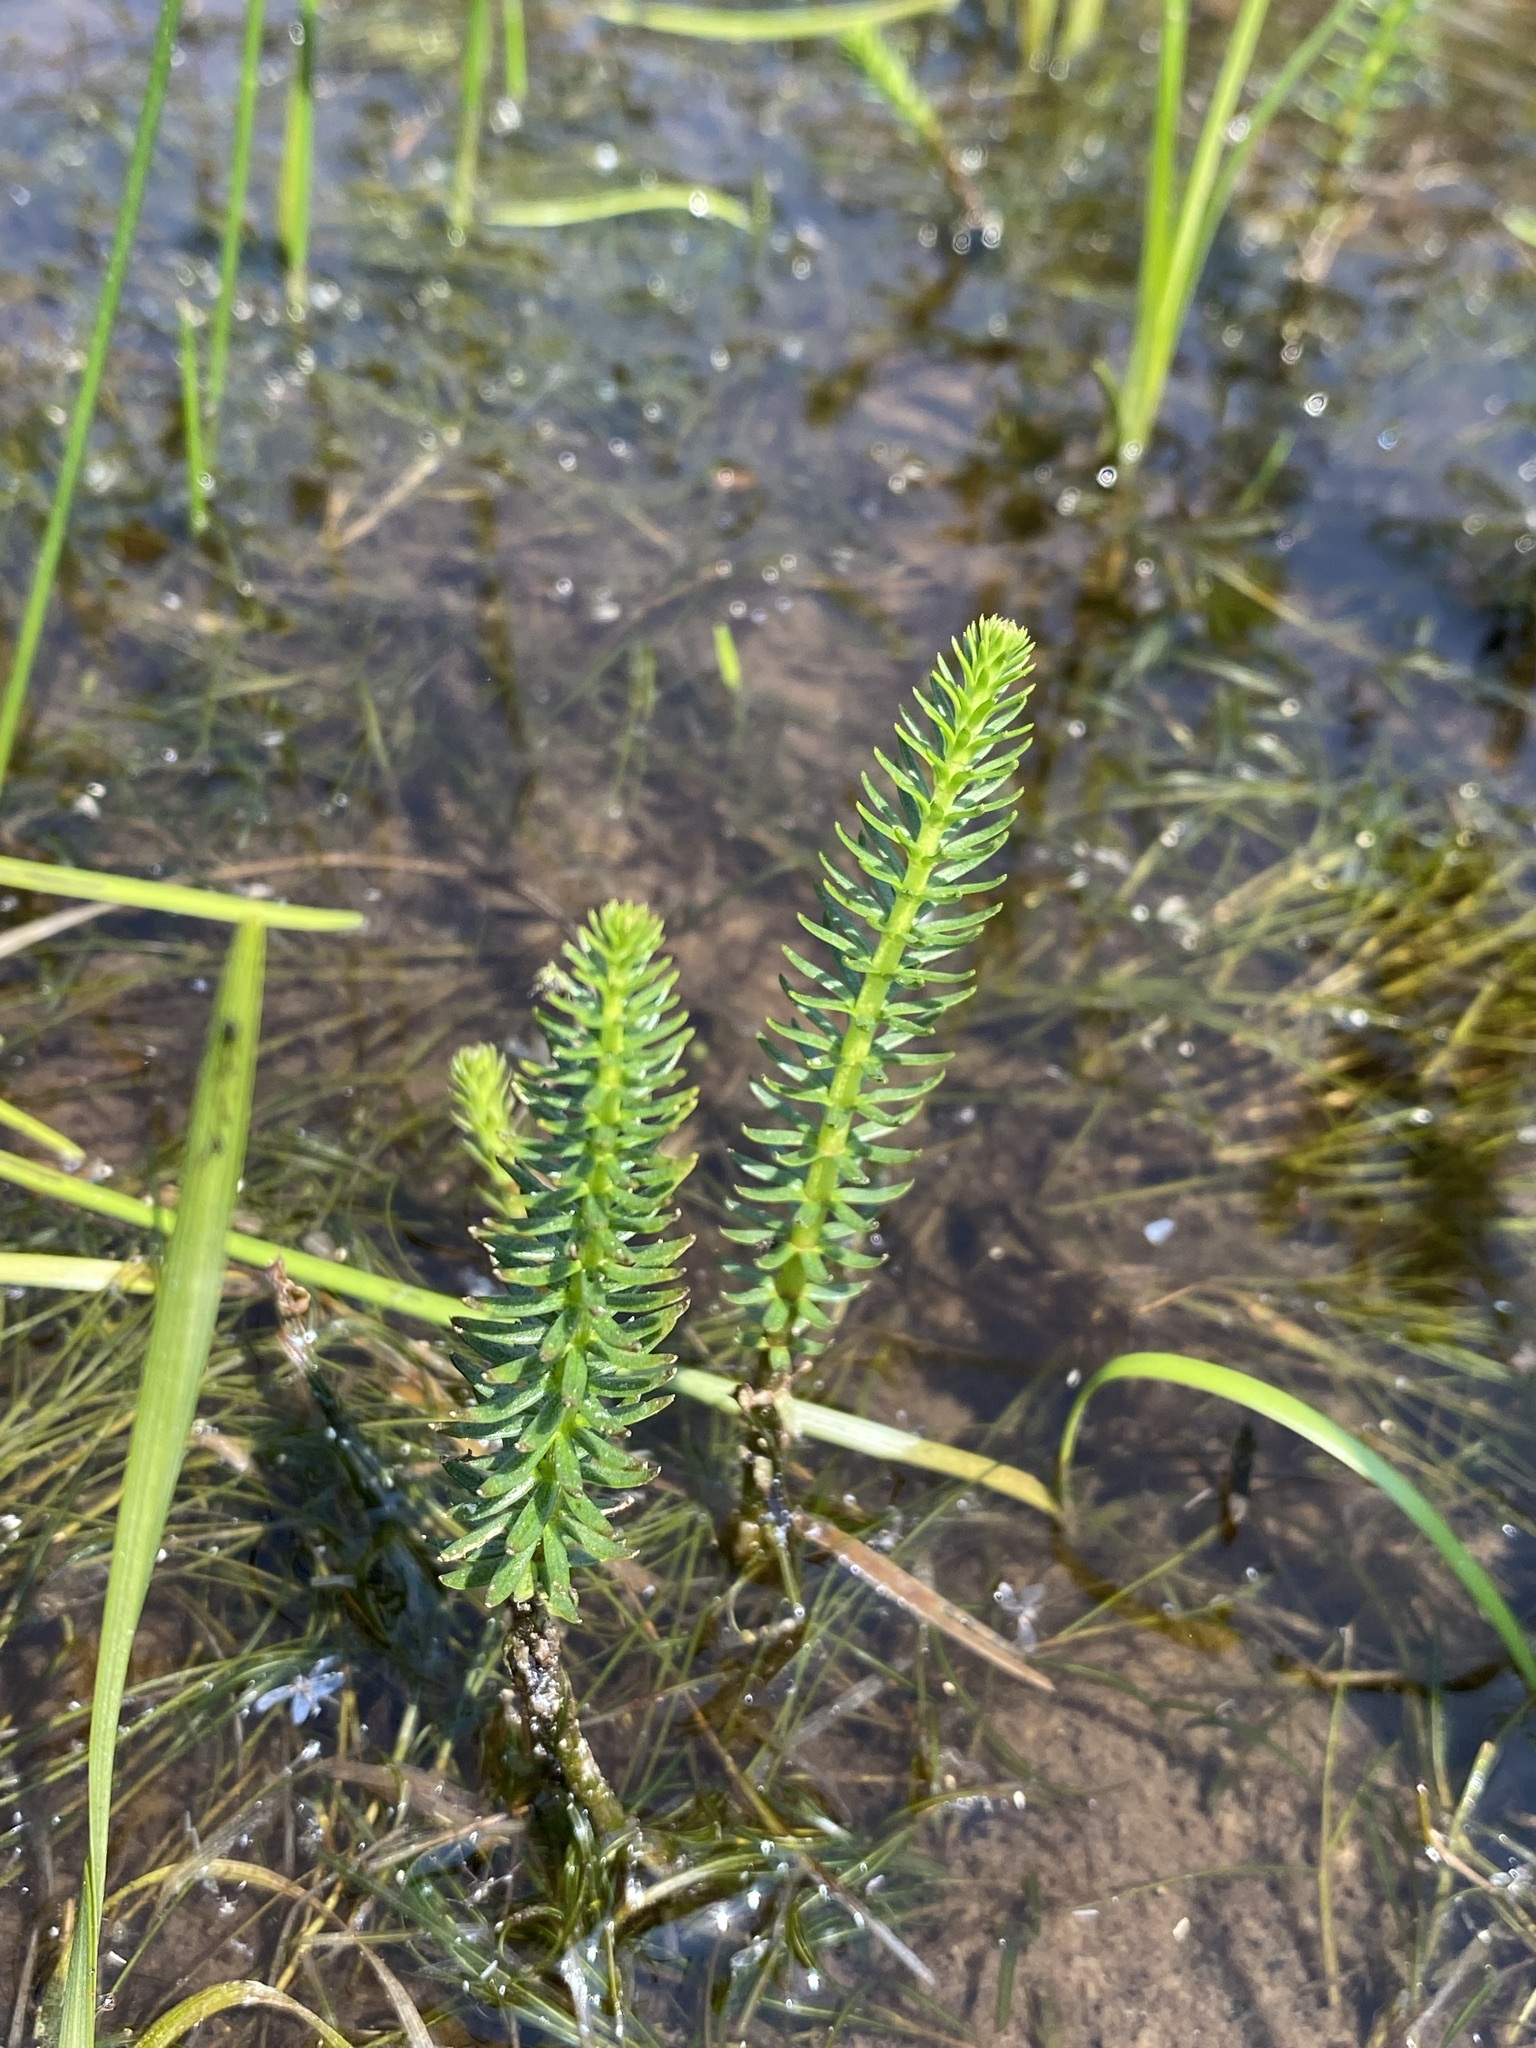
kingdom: Plantae
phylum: Tracheophyta
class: Magnoliopsida
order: Lamiales
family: Plantaginaceae
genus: Hippuris
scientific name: Hippuris vulgaris
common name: Mare's-tail
